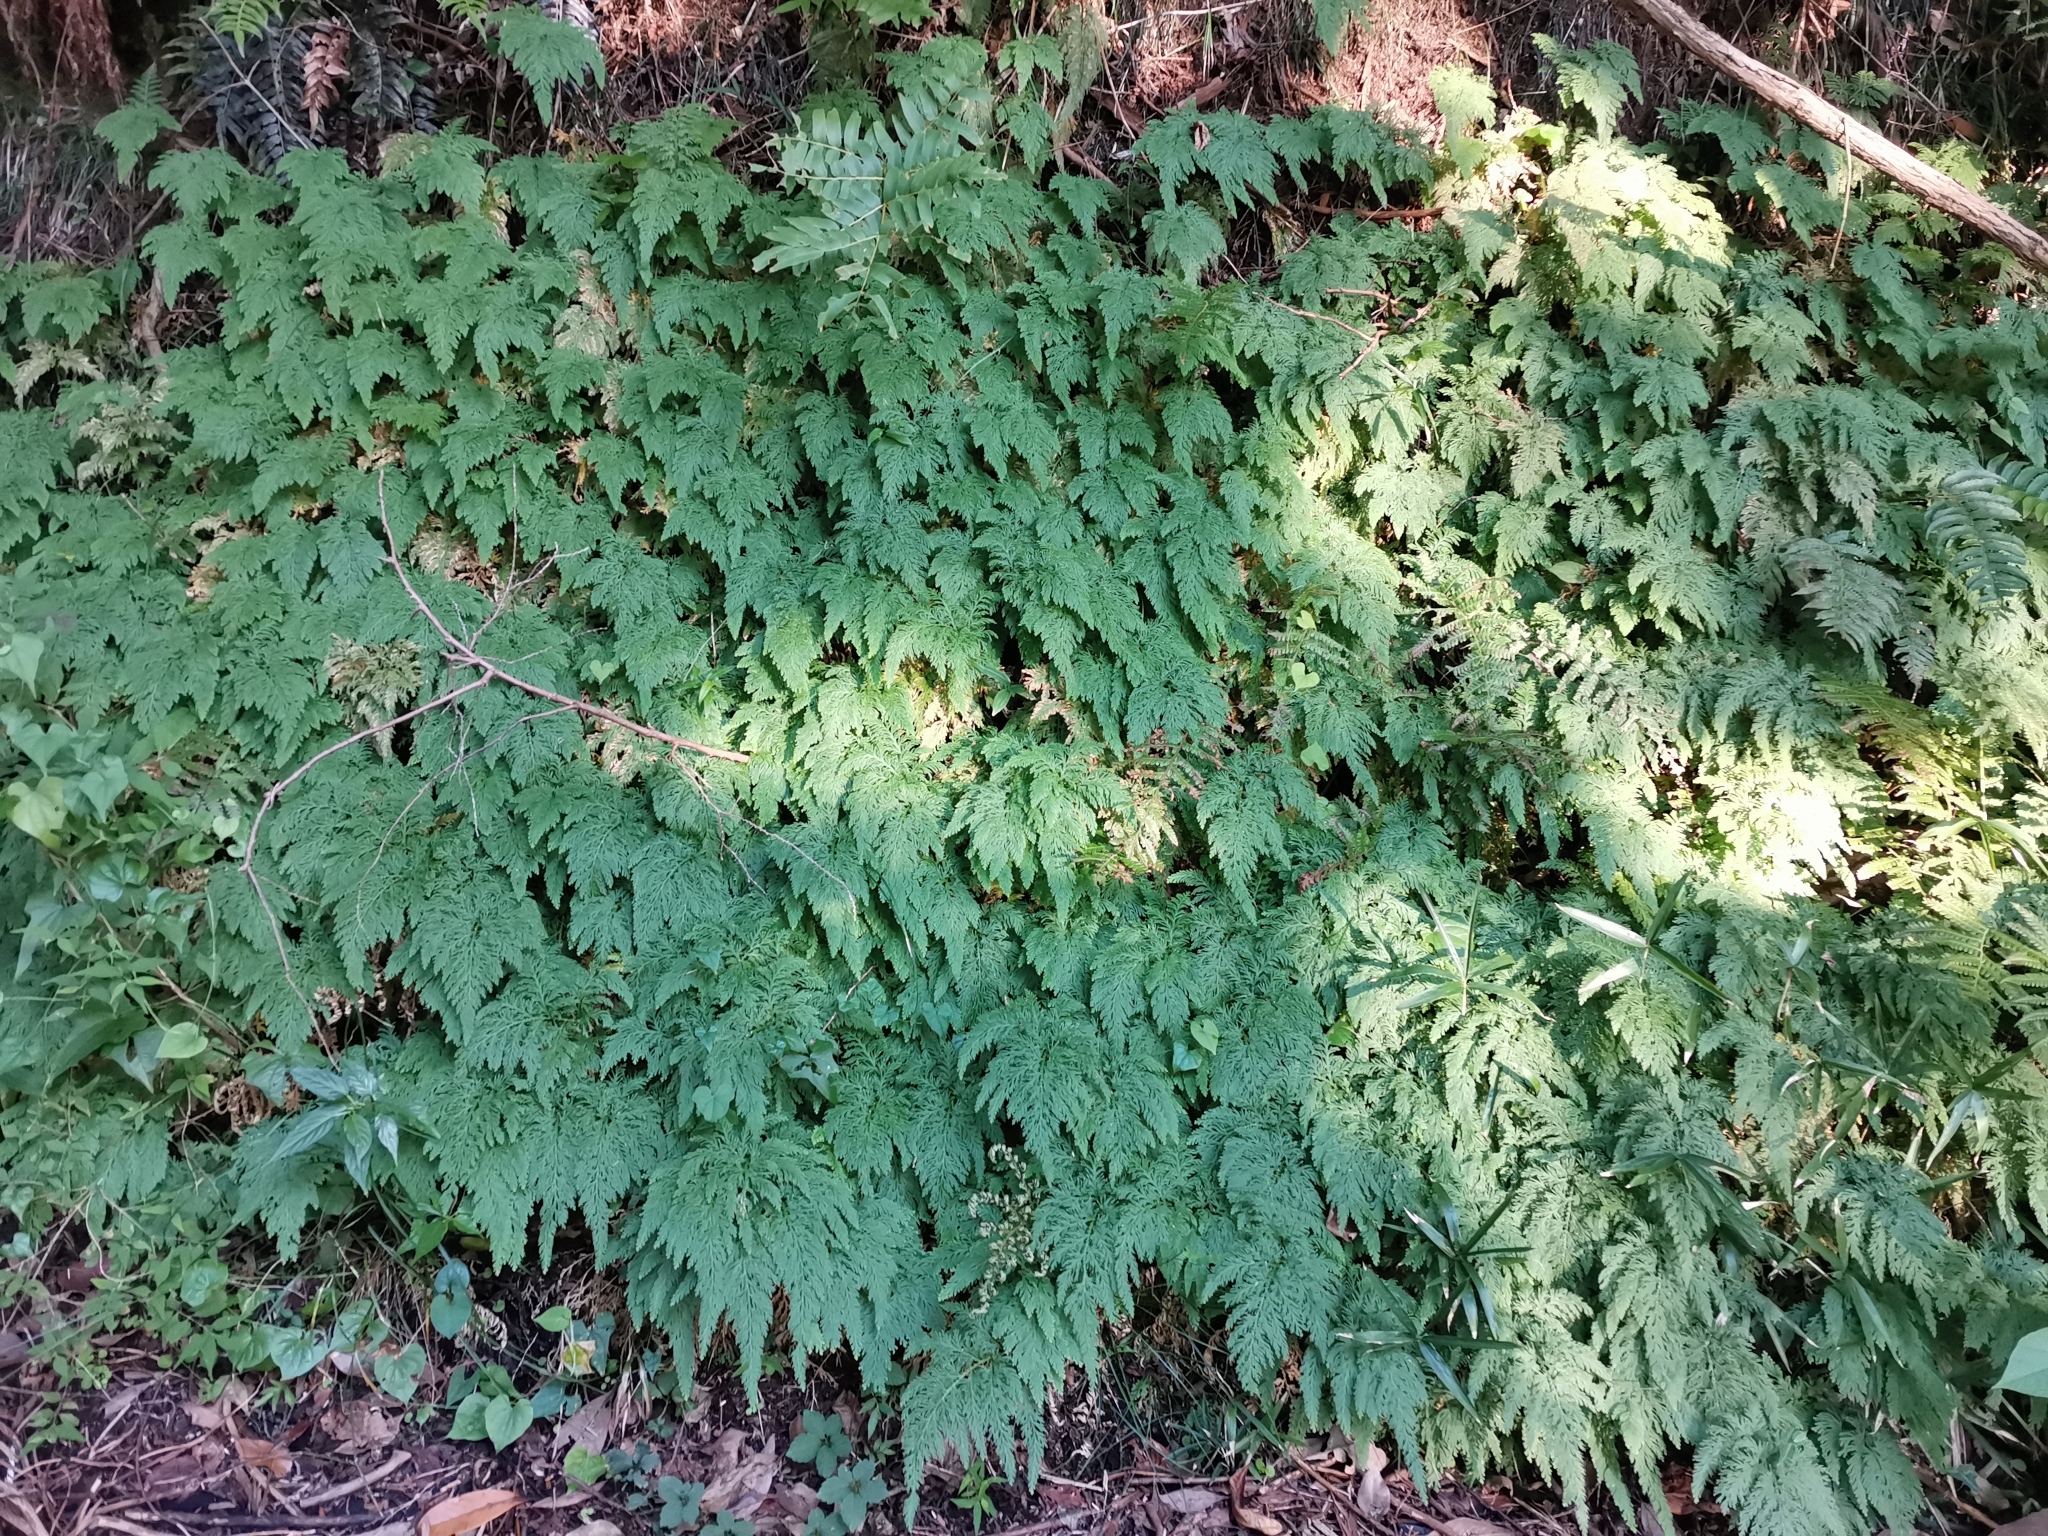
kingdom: Plantae
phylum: Tracheophyta
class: Lycopodiopsida
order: Selaginellales
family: Selaginellaceae
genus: Selaginella
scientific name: Selaginella moellendorffii
